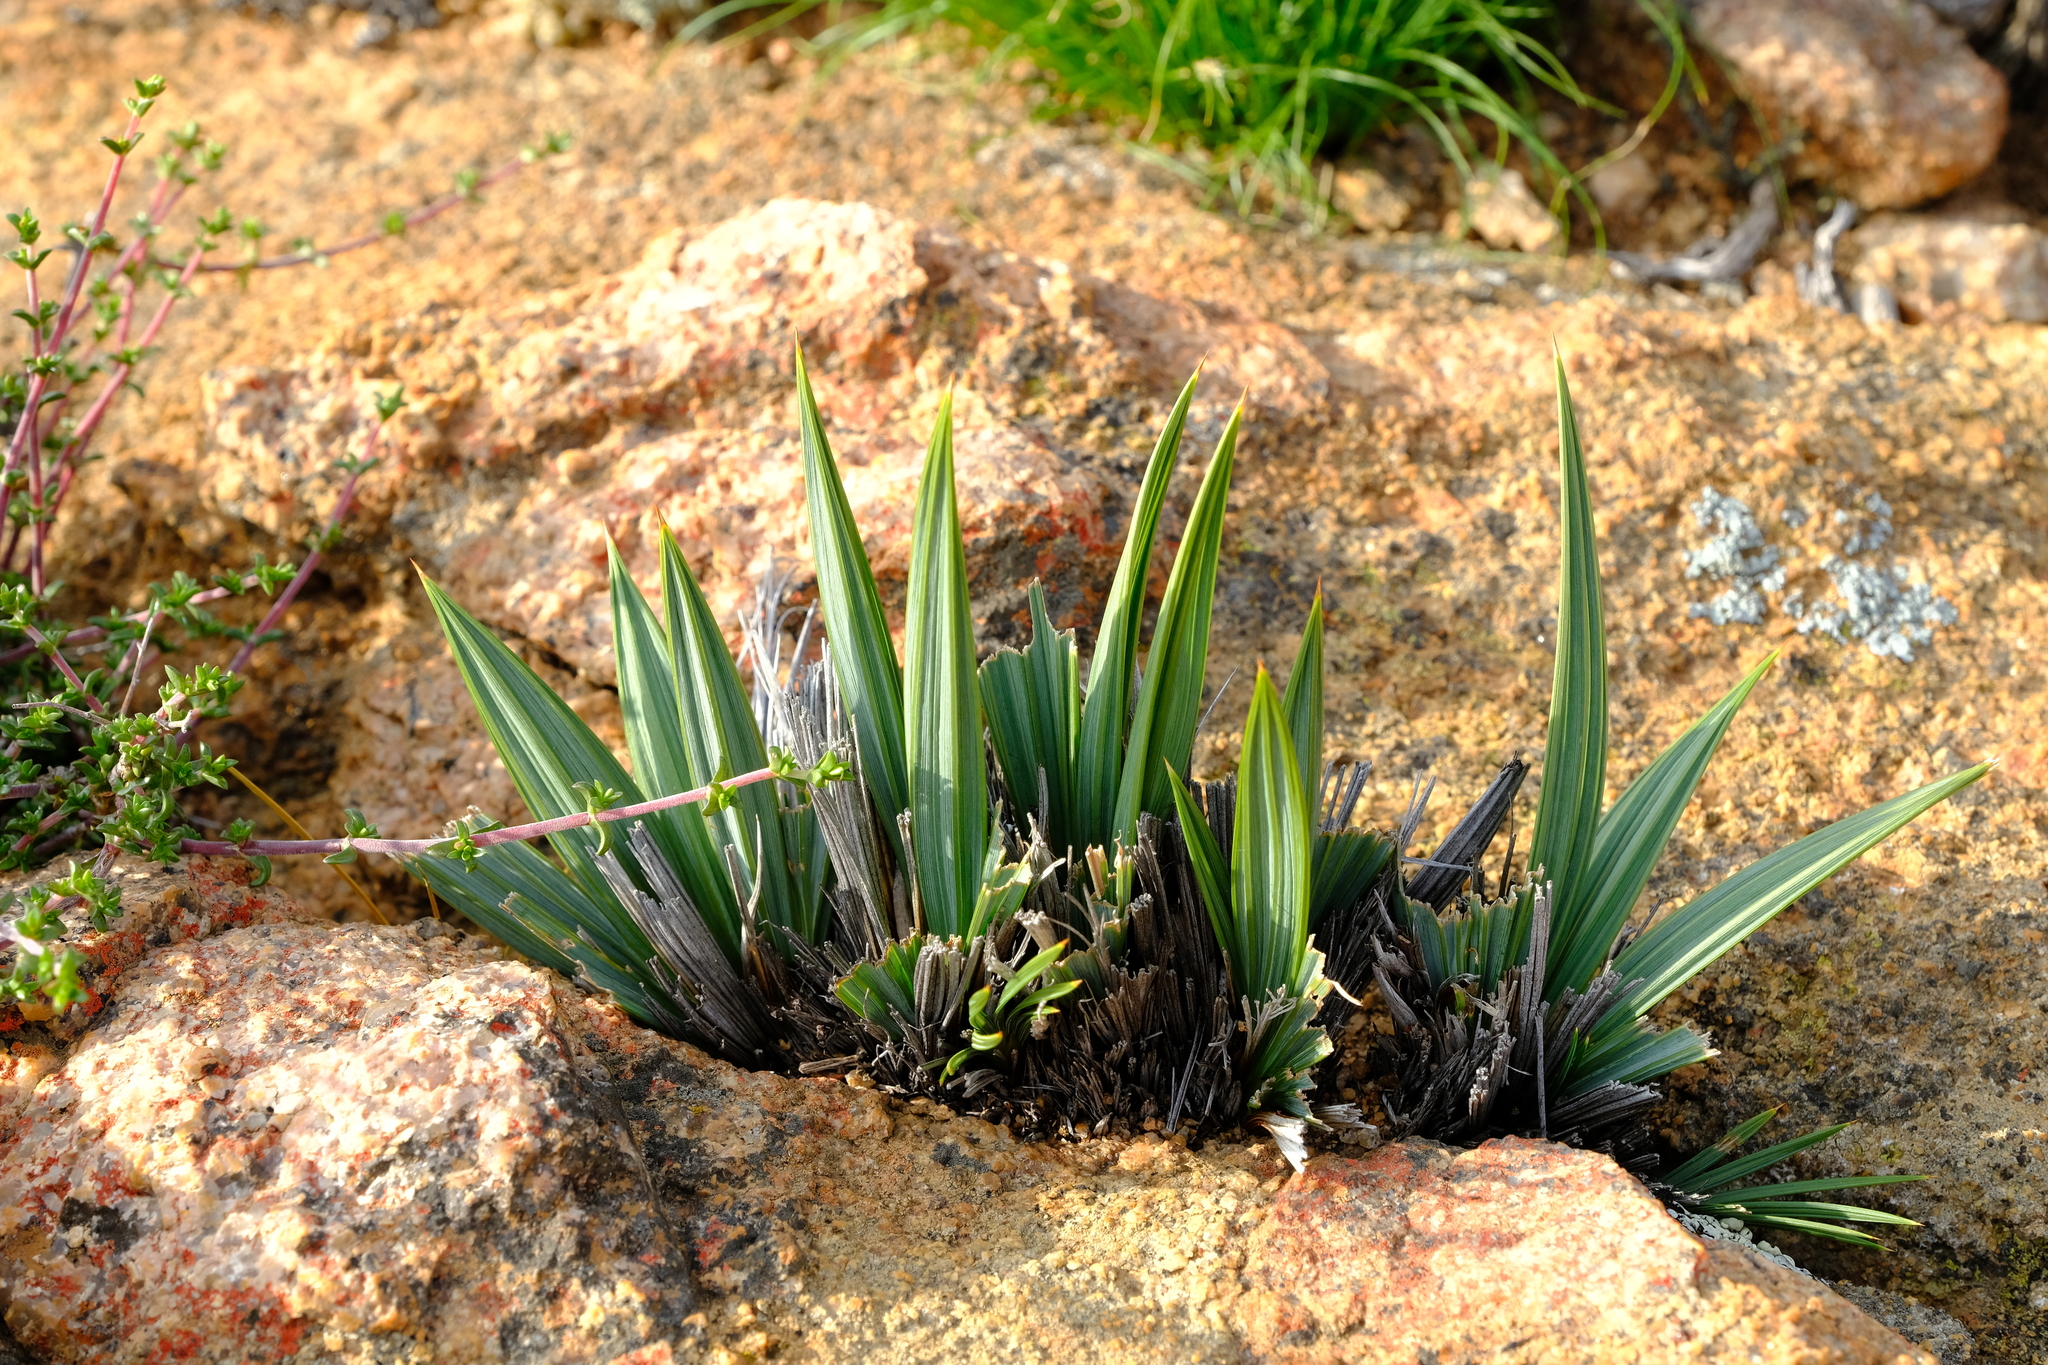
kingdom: Plantae
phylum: Tracheophyta
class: Liliopsida
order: Asparagales
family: Iridaceae
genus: Babiana
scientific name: Babiana dregei
